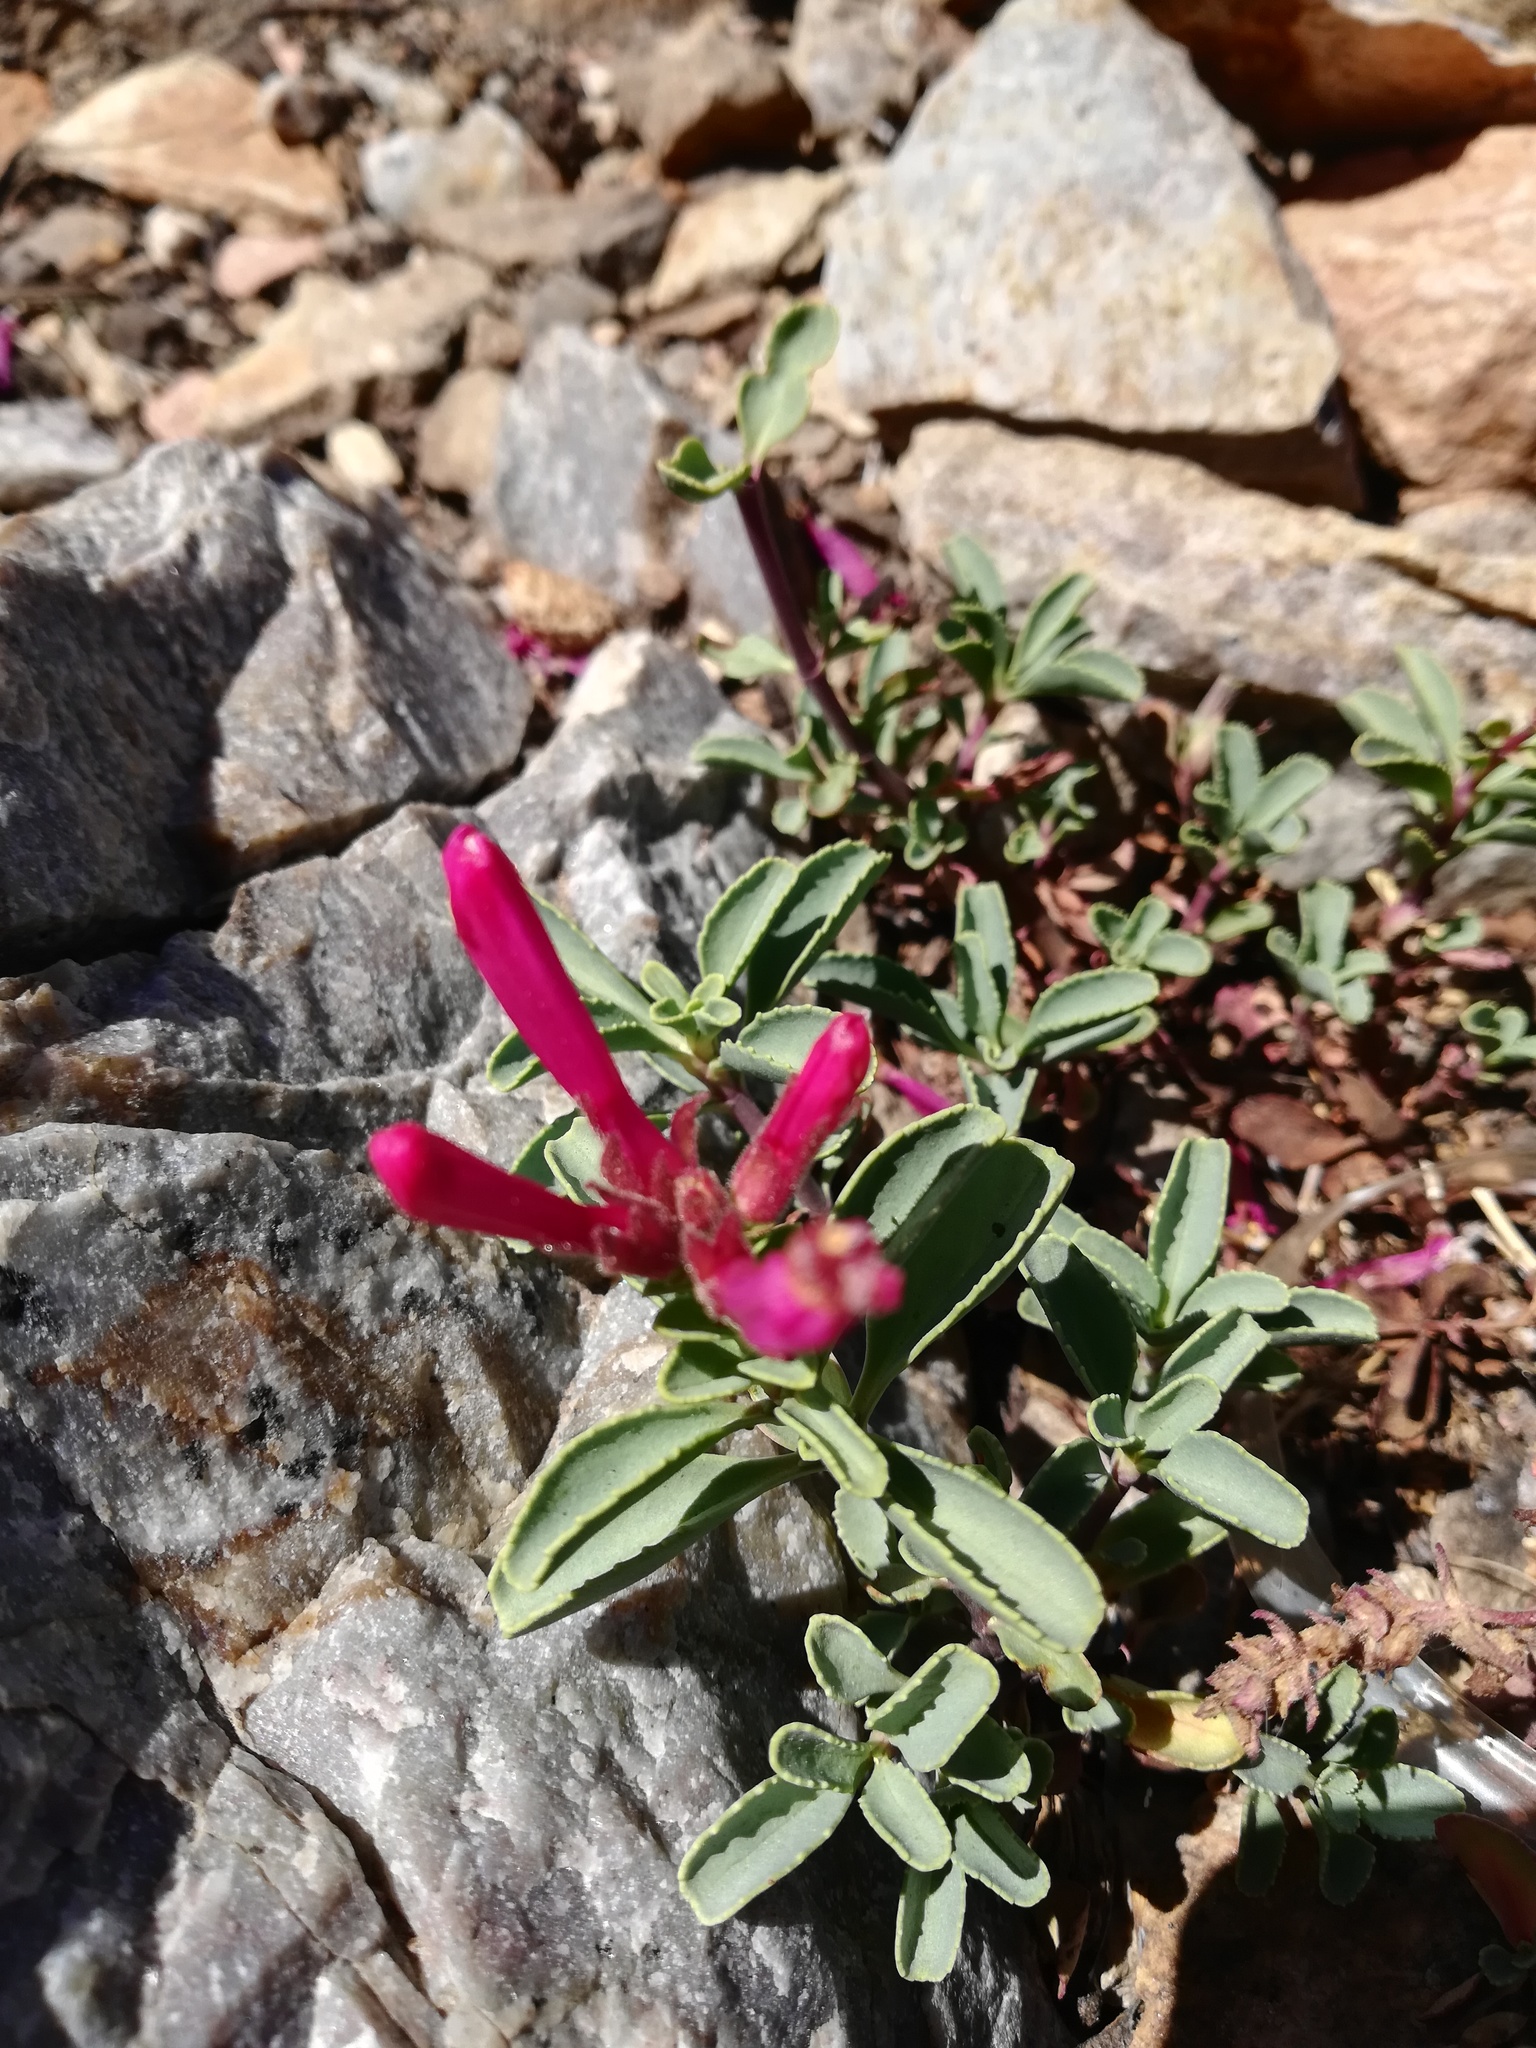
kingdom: Plantae
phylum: Tracheophyta
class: Magnoliopsida
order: Lamiales
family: Plantaginaceae
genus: Penstemon
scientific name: Penstemon newberryi
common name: Mountain-pride
